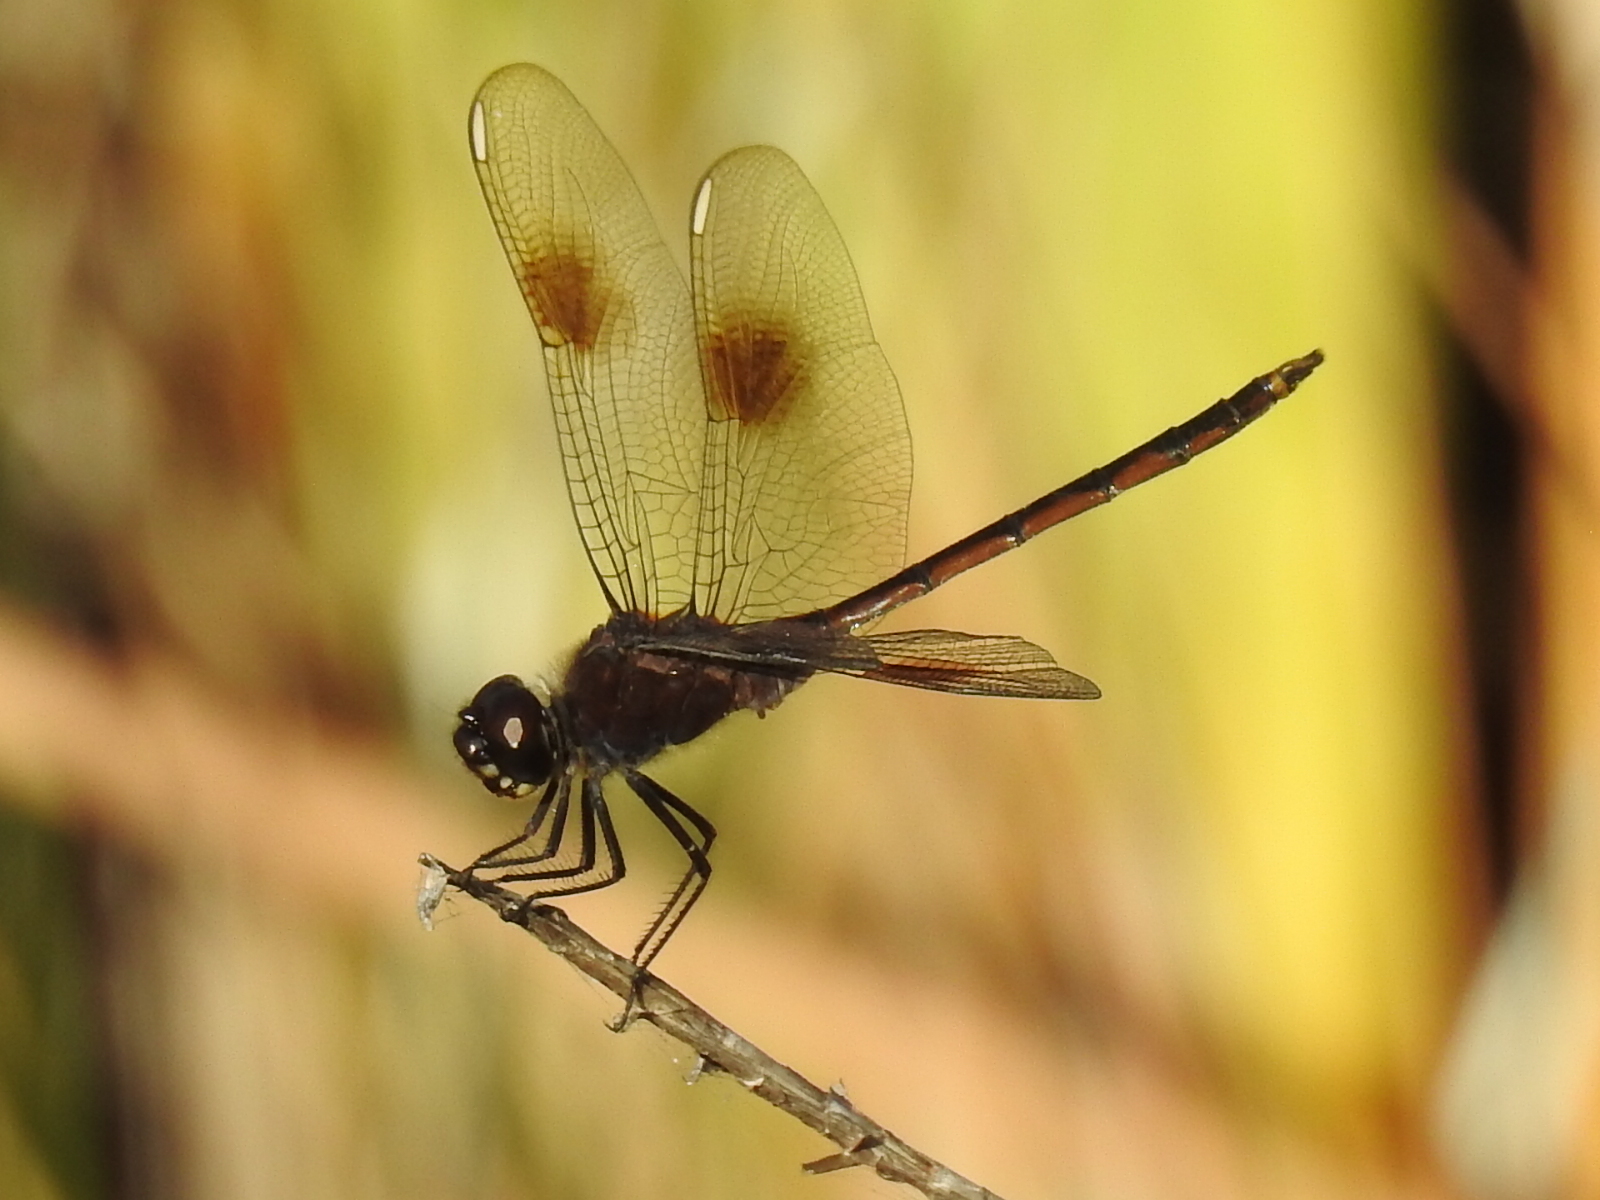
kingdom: Animalia
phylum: Arthropoda
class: Insecta
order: Odonata
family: Libellulidae
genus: Brachymesia
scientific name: Brachymesia gravida
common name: Four-spotted pennant
